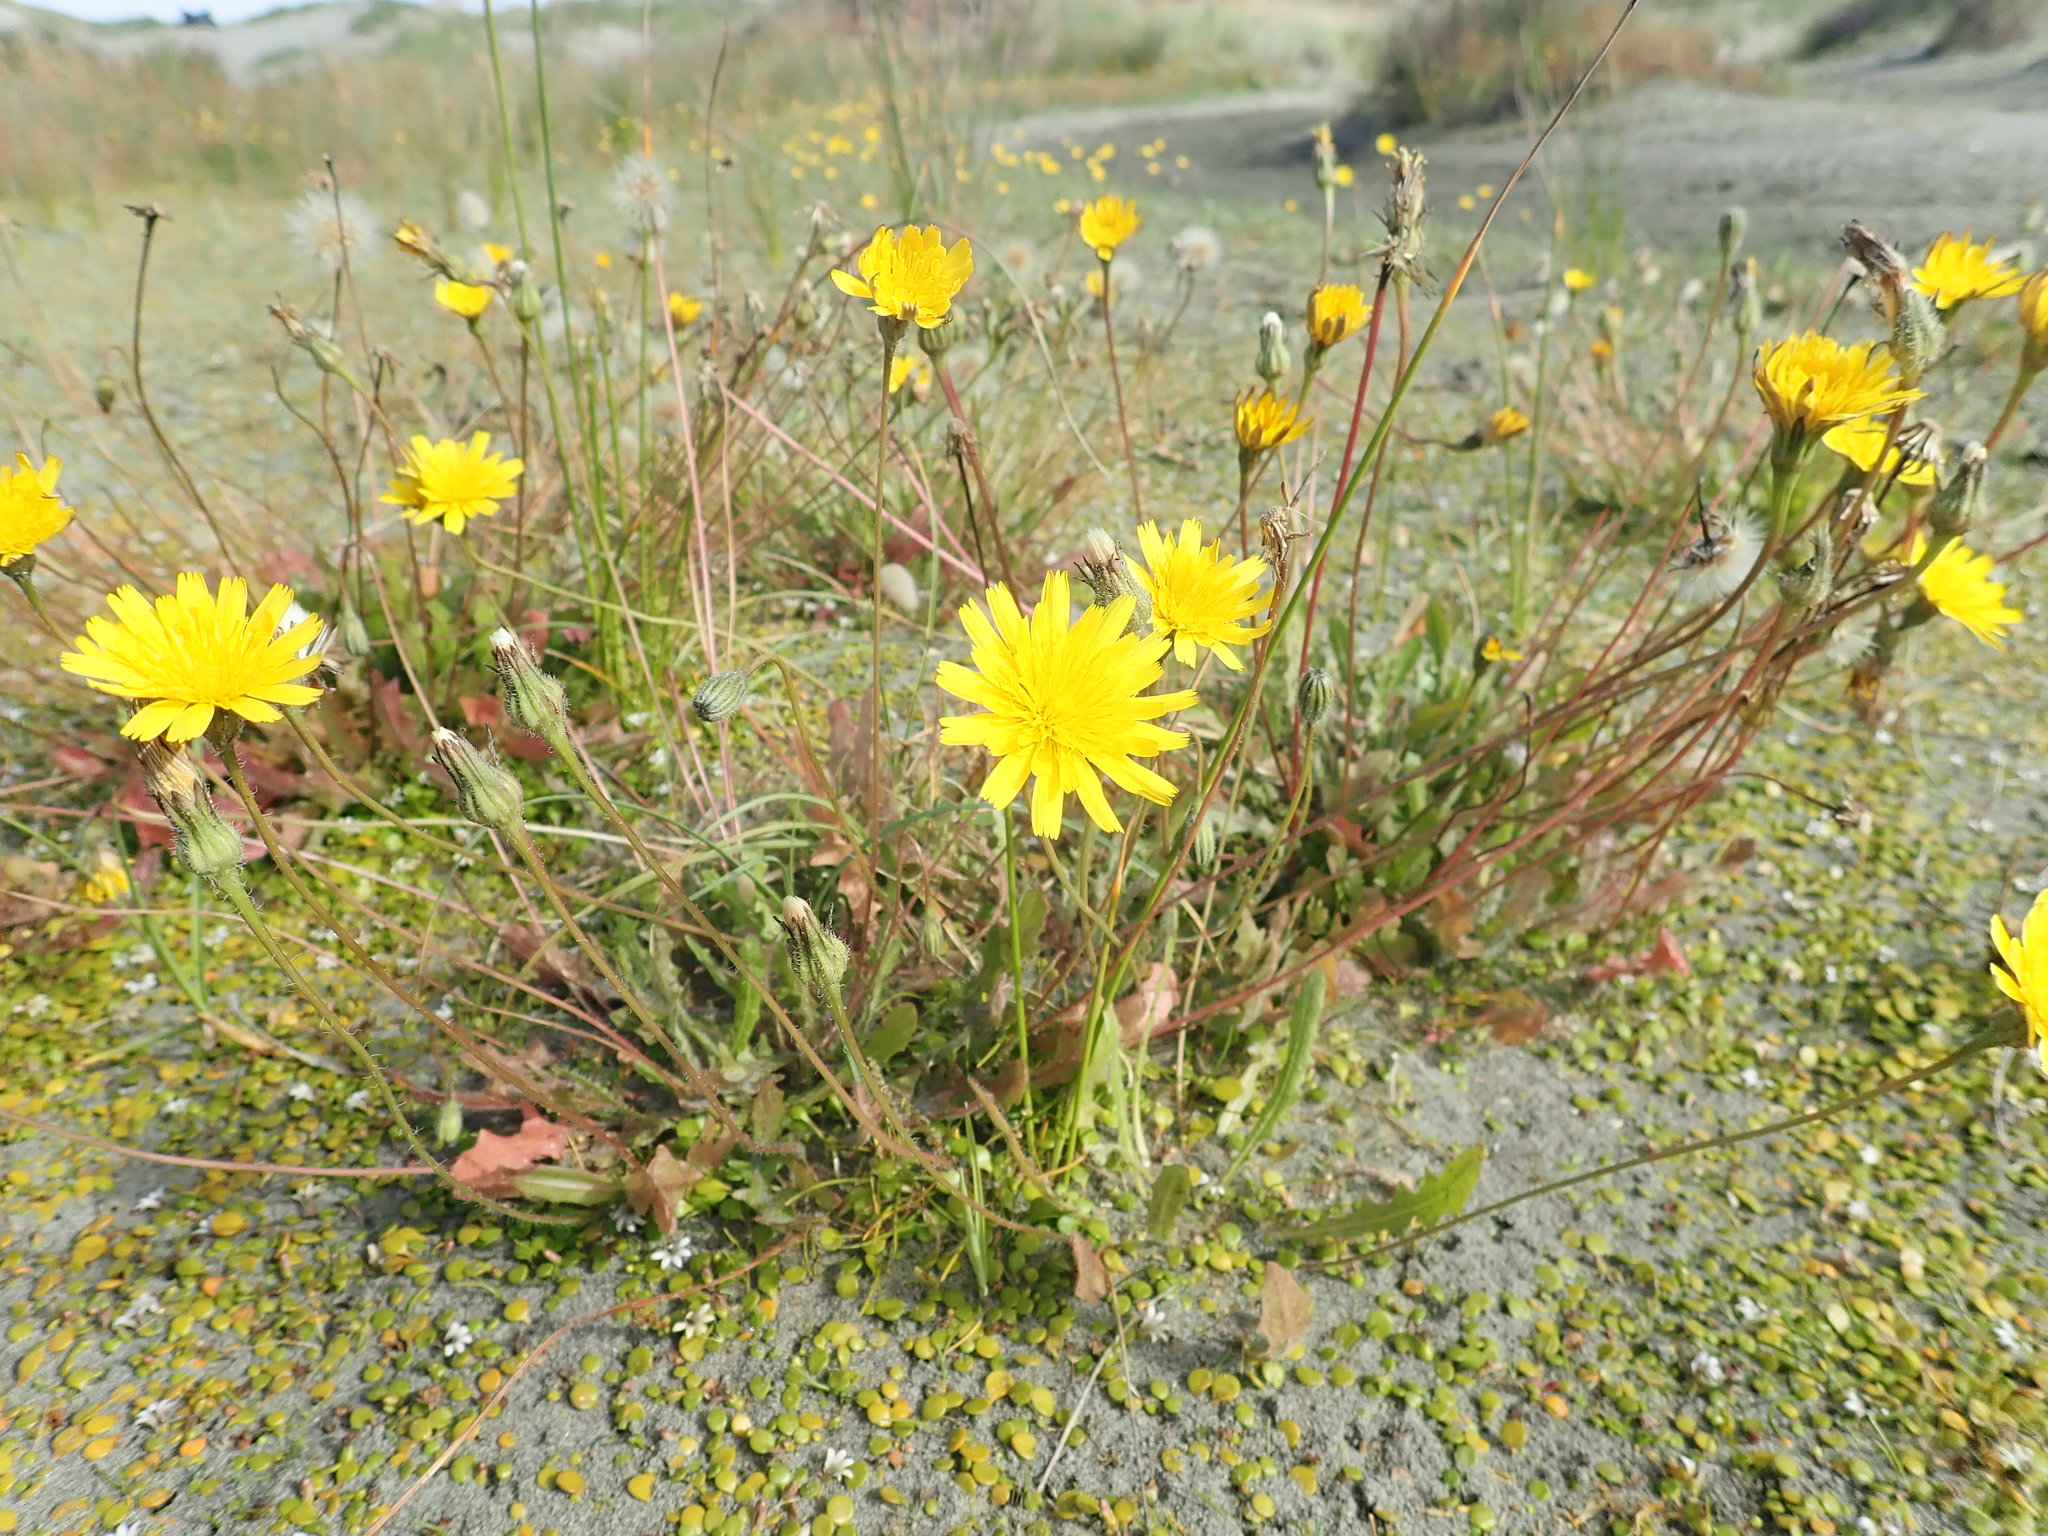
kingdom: Plantae
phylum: Tracheophyta
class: Magnoliopsida
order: Asterales
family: Asteraceae
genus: Hypochaeris
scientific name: Hypochaeris radicata
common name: Flatweed
